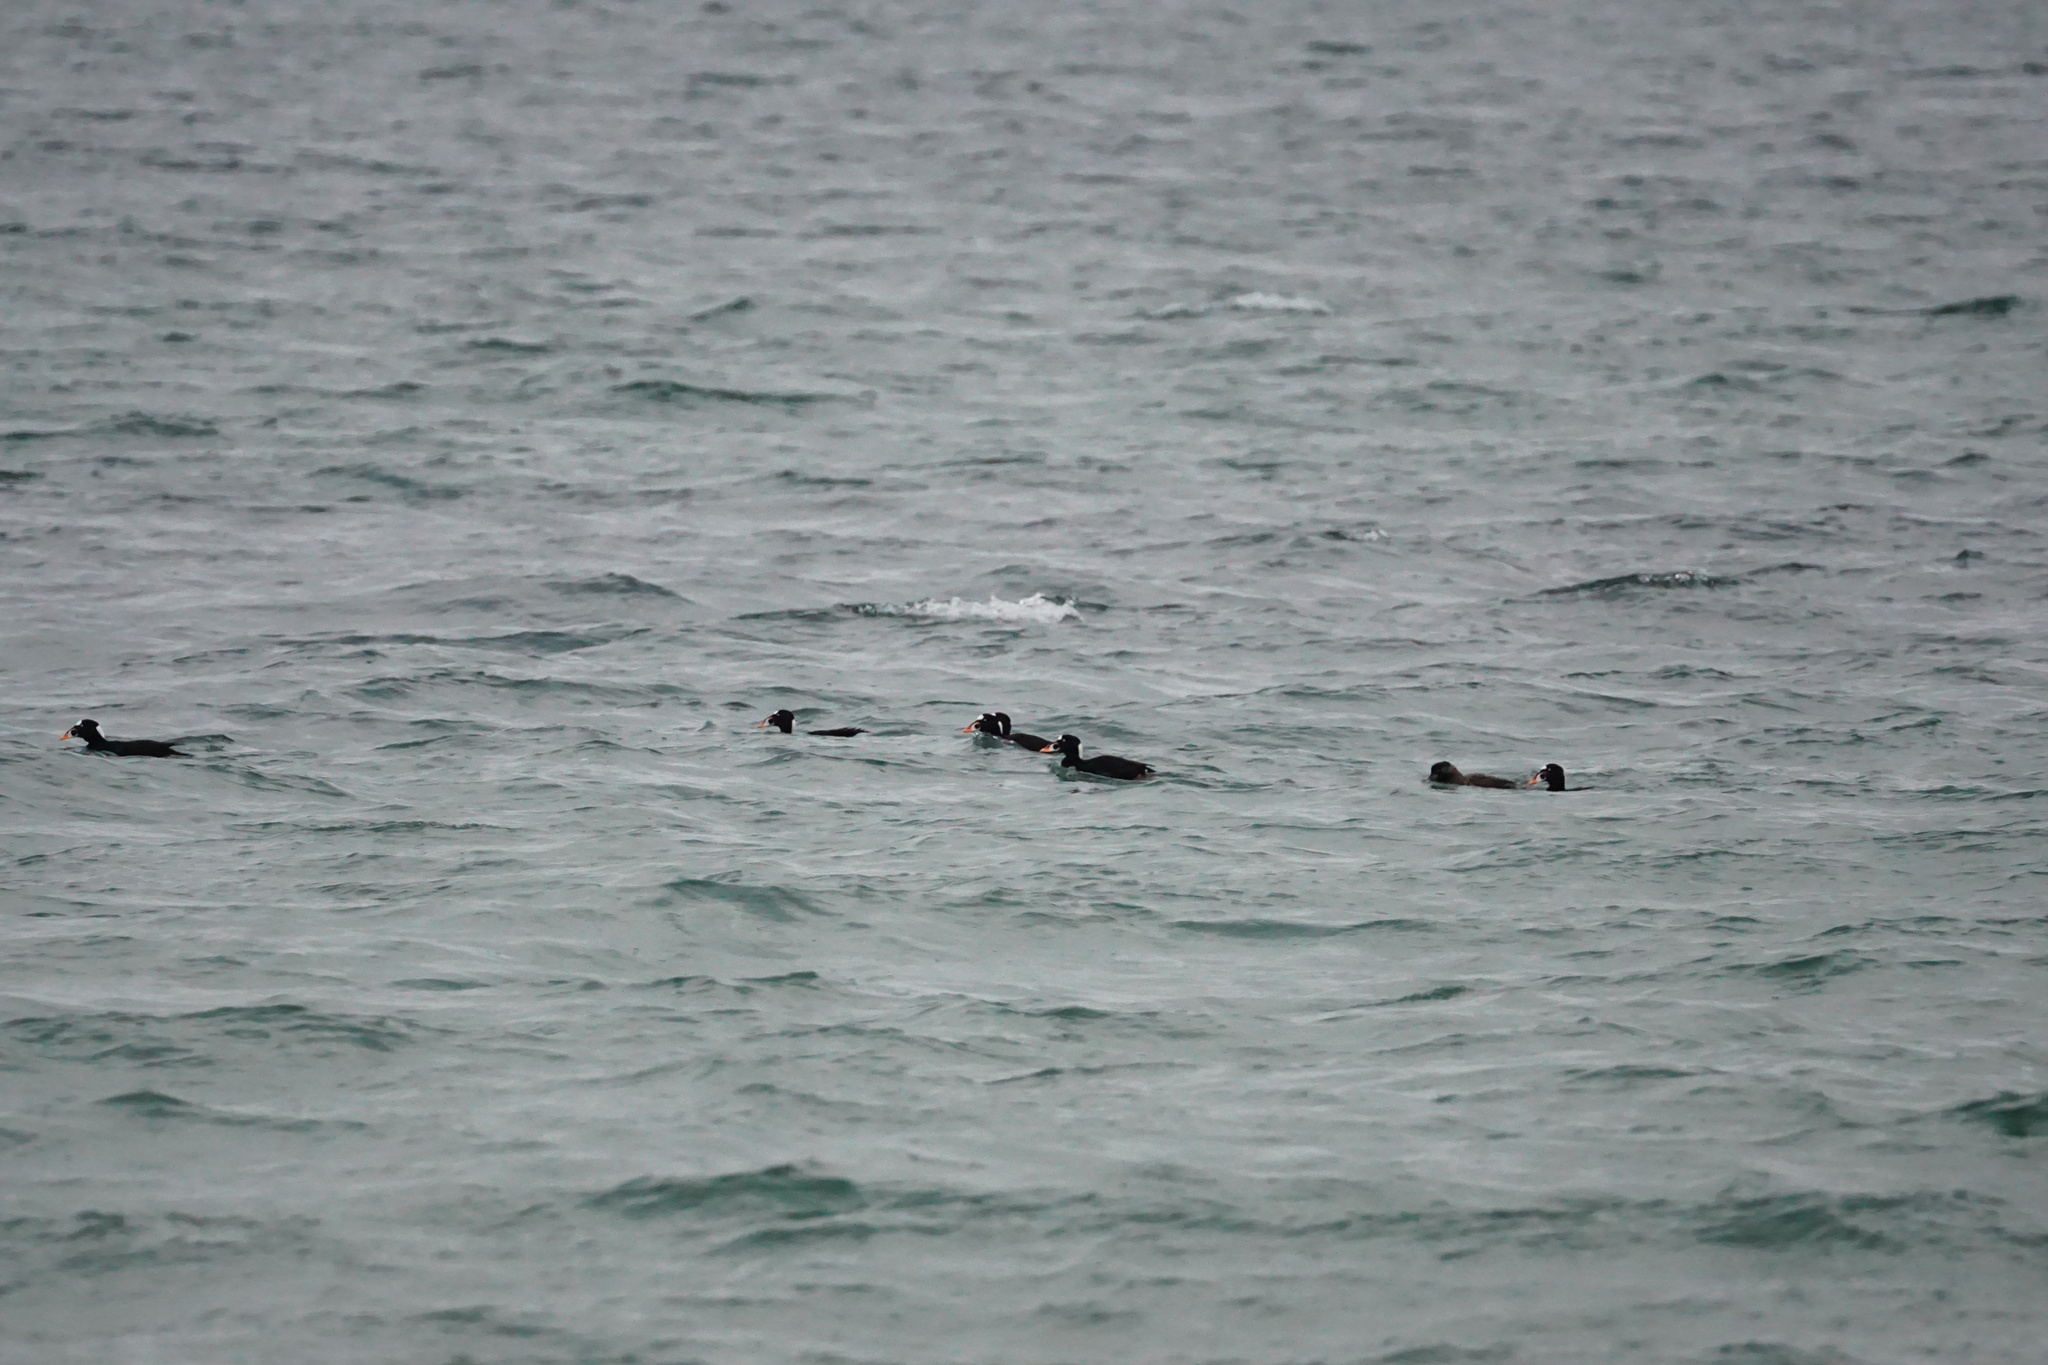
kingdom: Animalia
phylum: Chordata
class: Aves
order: Anseriformes
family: Anatidae
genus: Melanitta
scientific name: Melanitta perspicillata
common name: Surf scoter
